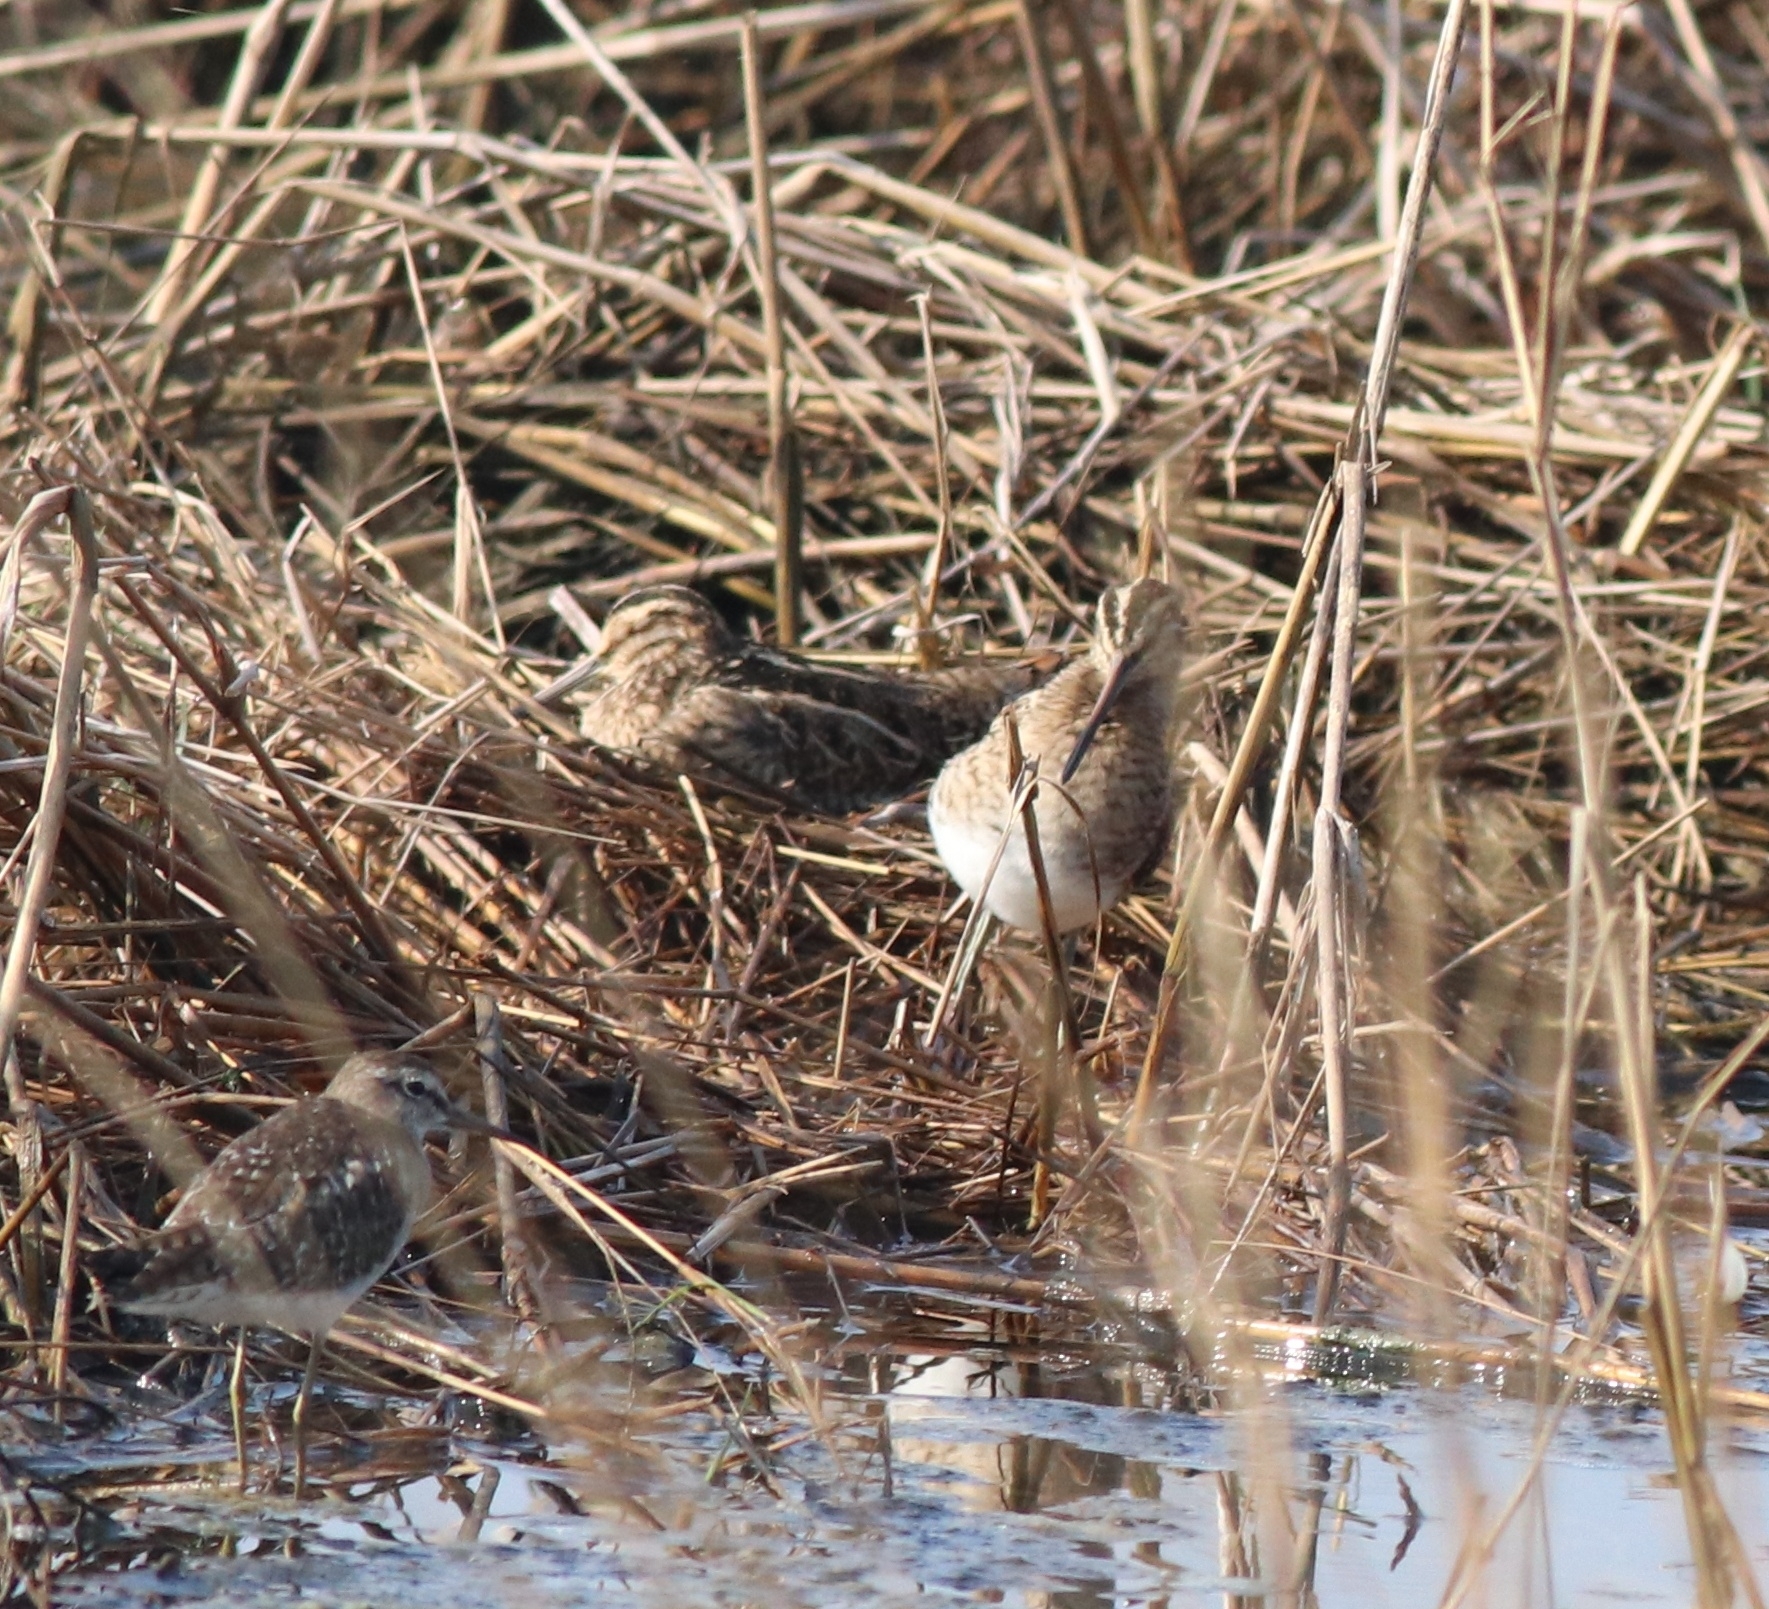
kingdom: Animalia
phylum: Chordata
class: Aves
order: Charadriiformes
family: Scolopacidae
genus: Tringa
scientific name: Tringa glareola
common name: Wood sandpiper
